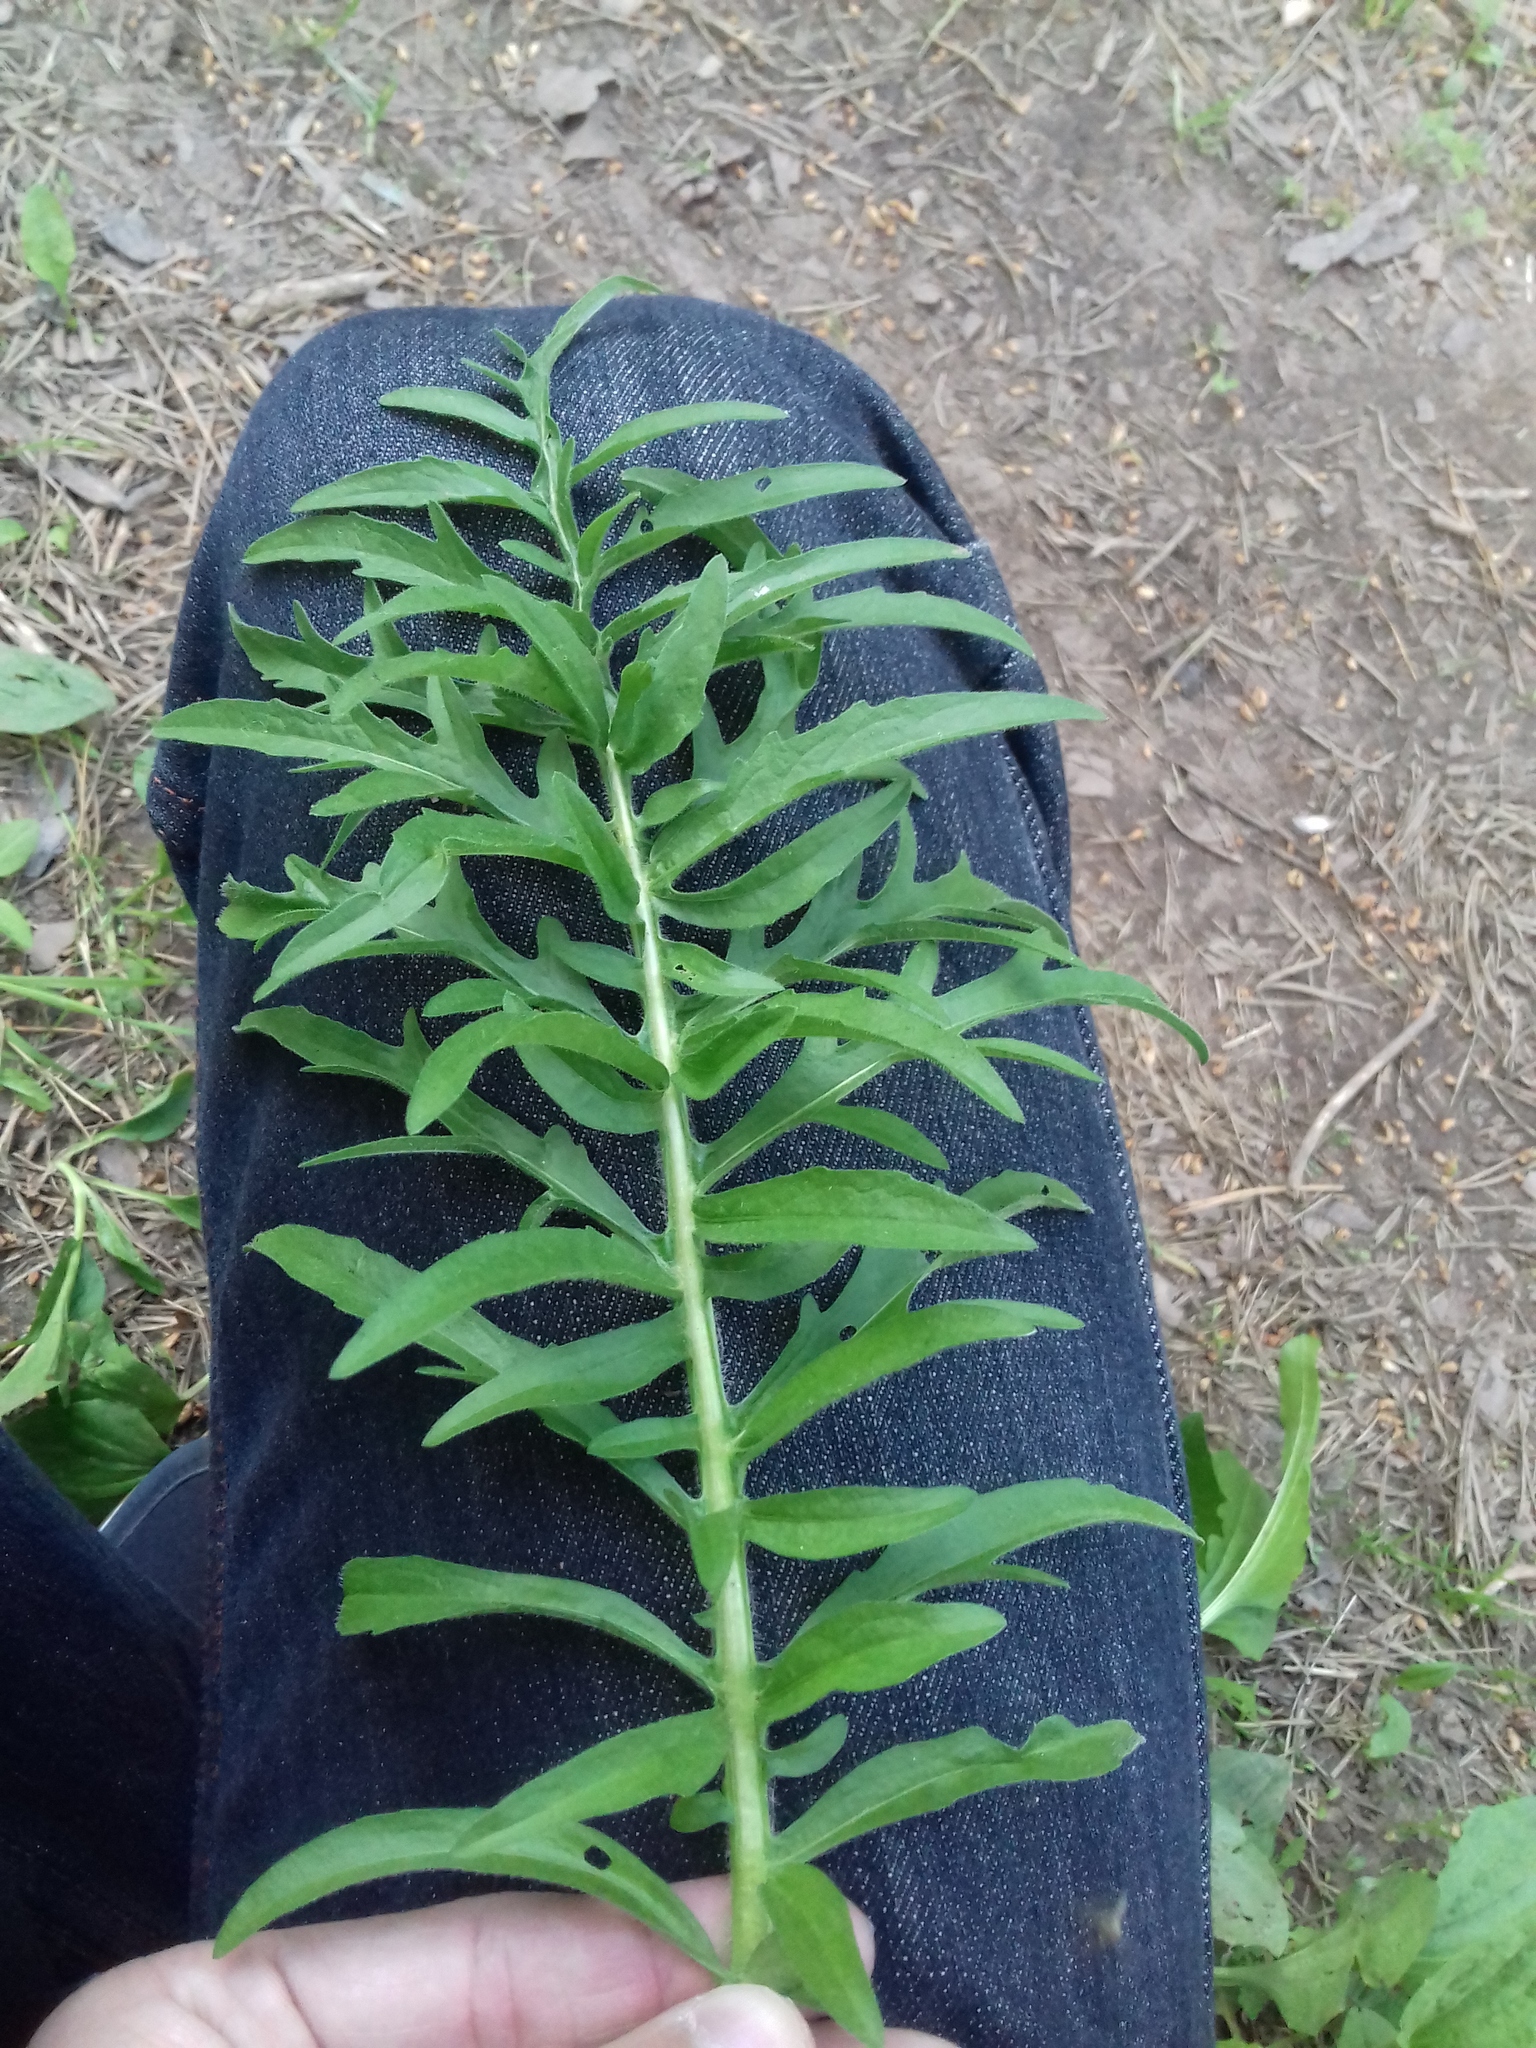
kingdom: Plantae
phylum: Tracheophyta
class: Magnoliopsida
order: Asterales
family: Asteraceae
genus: Centaurea
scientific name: Centaurea scabiosa
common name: Greater knapweed
